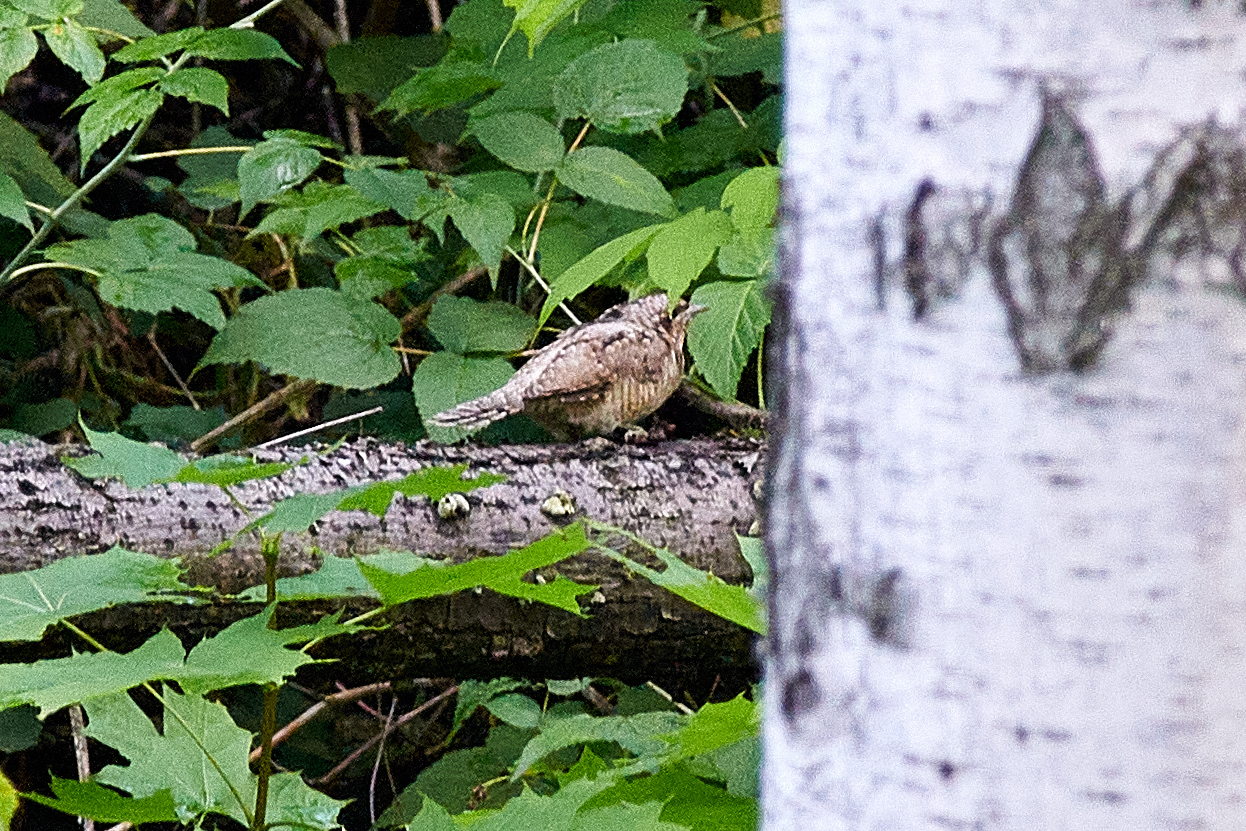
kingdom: Animalia
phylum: Chordata
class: Aves
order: Piciformes
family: Picidae
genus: Jynx
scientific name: Jynx torquilla
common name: Eurasian wryneck
